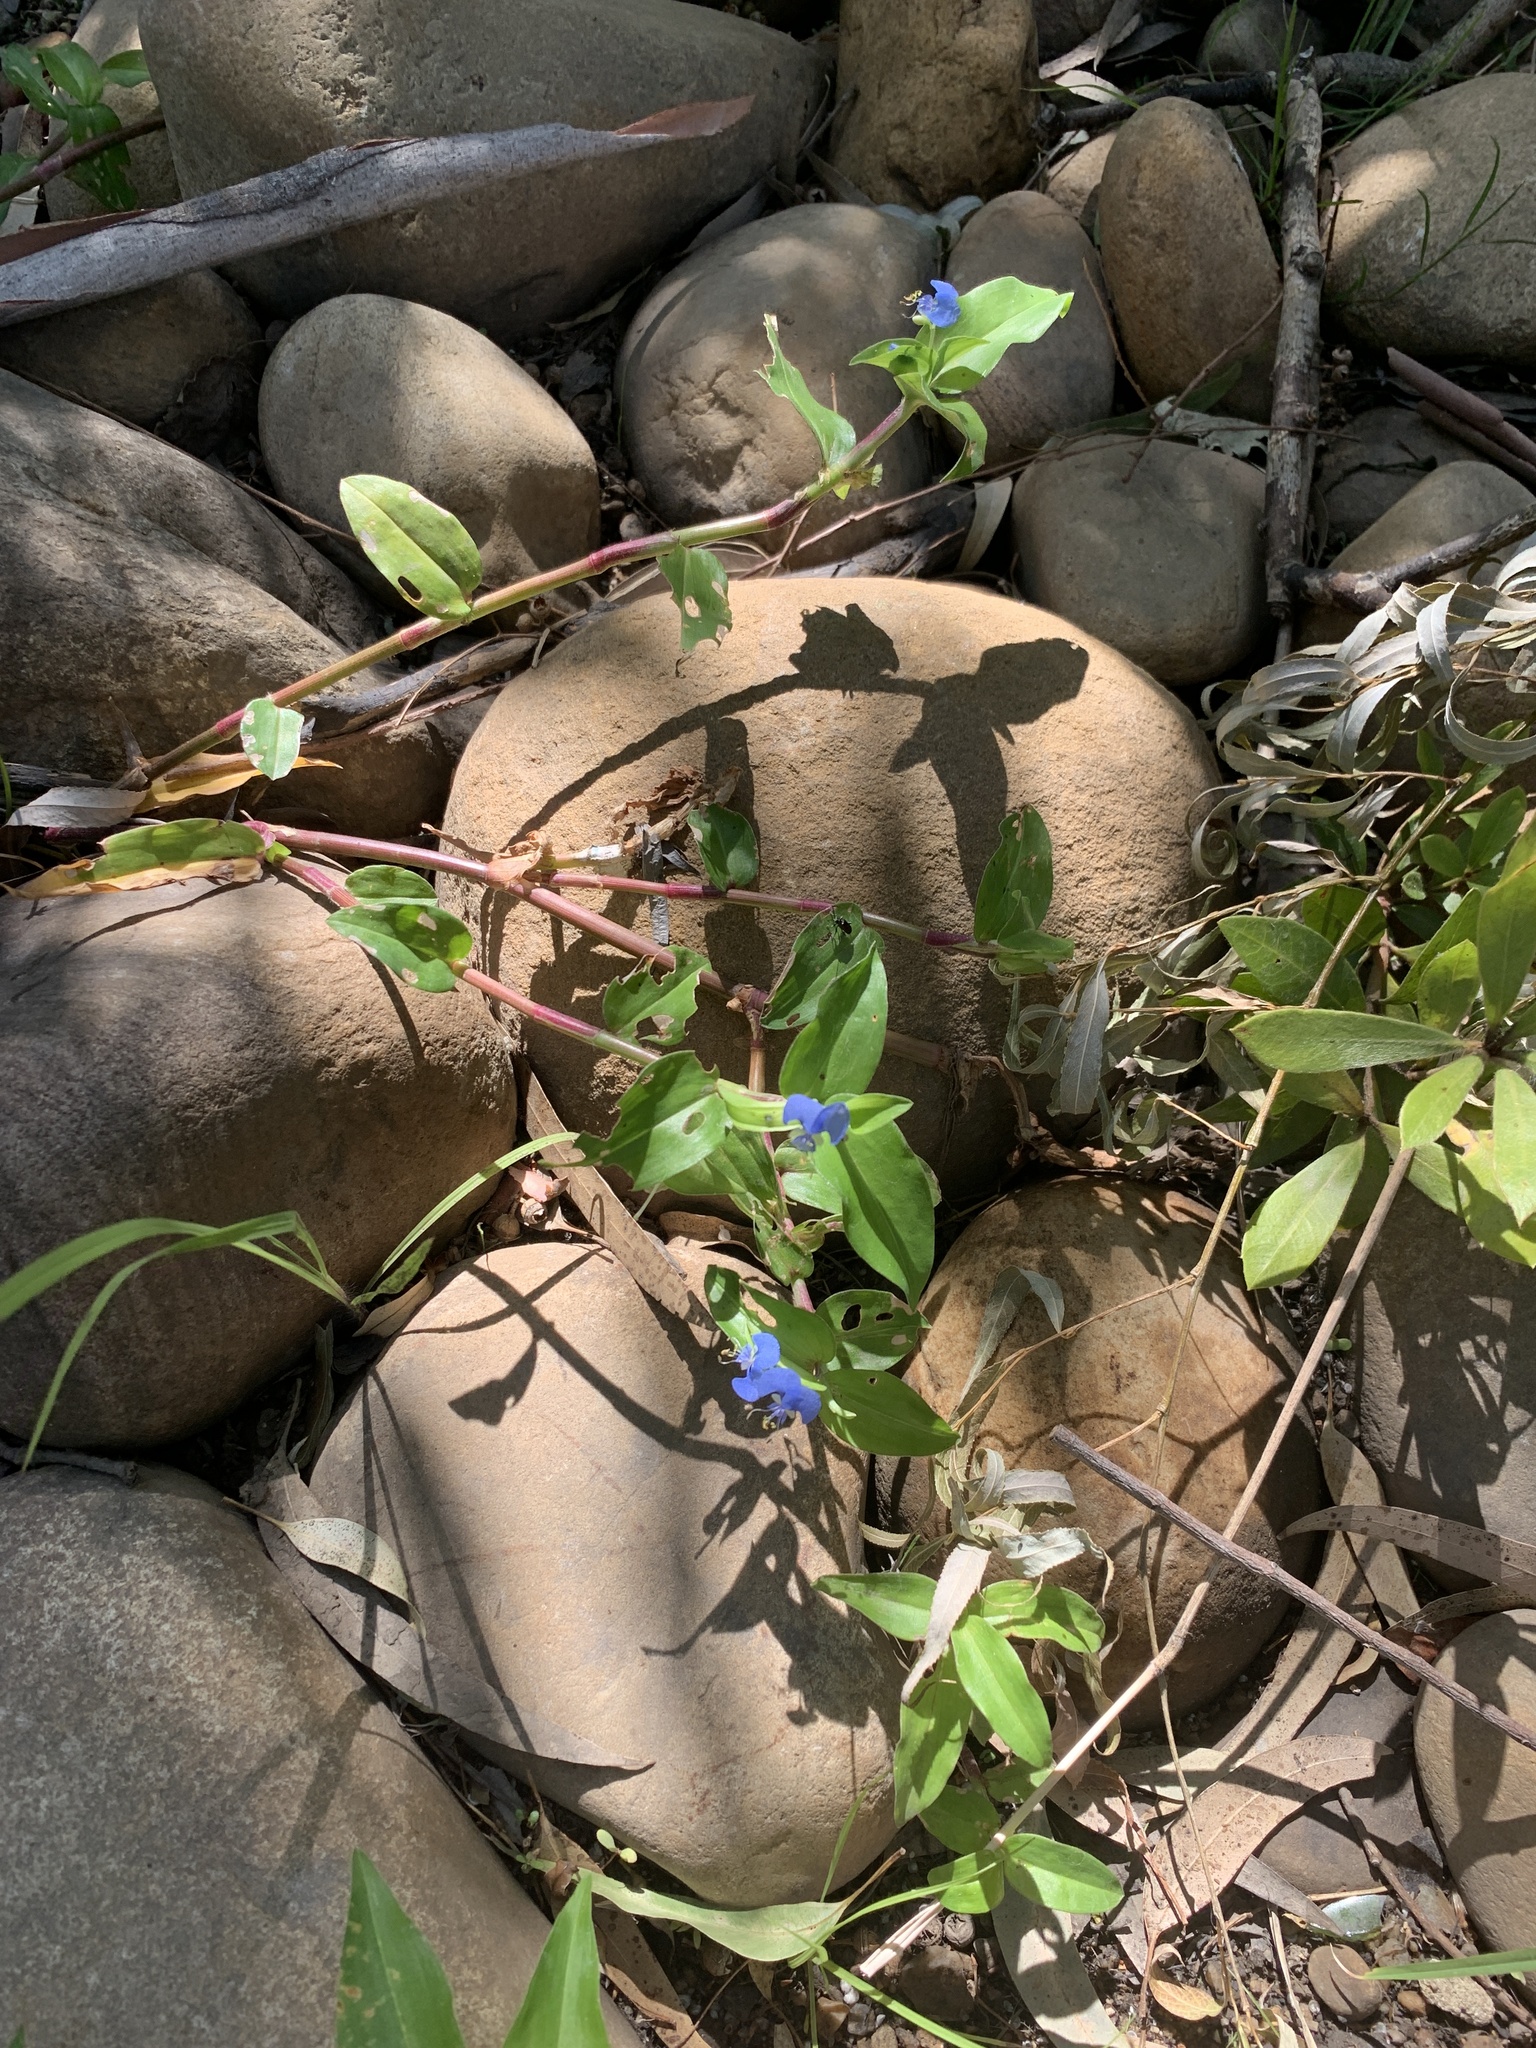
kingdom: Plantae
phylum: Tracheophyta
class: Liliopsida
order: Commelinales
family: Commelinaceae
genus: Commelina
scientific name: Commelina diffusa
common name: Climbing dayflower
